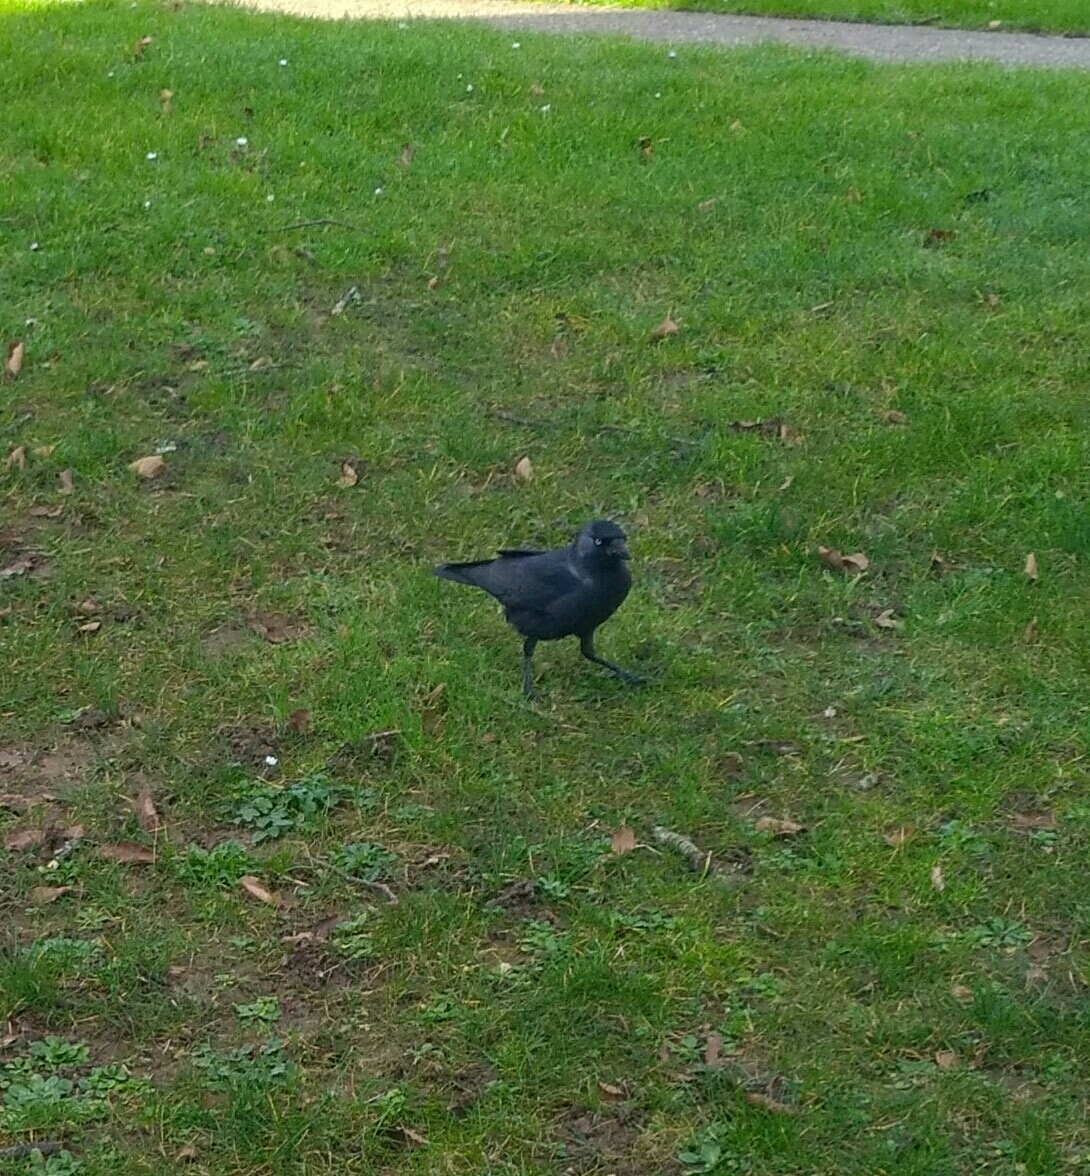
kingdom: Animalia
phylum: Chordata
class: Aves
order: Passeriformes
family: Corvidae
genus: Coloeus
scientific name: Coloeus monedula
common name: Western jackdaw
